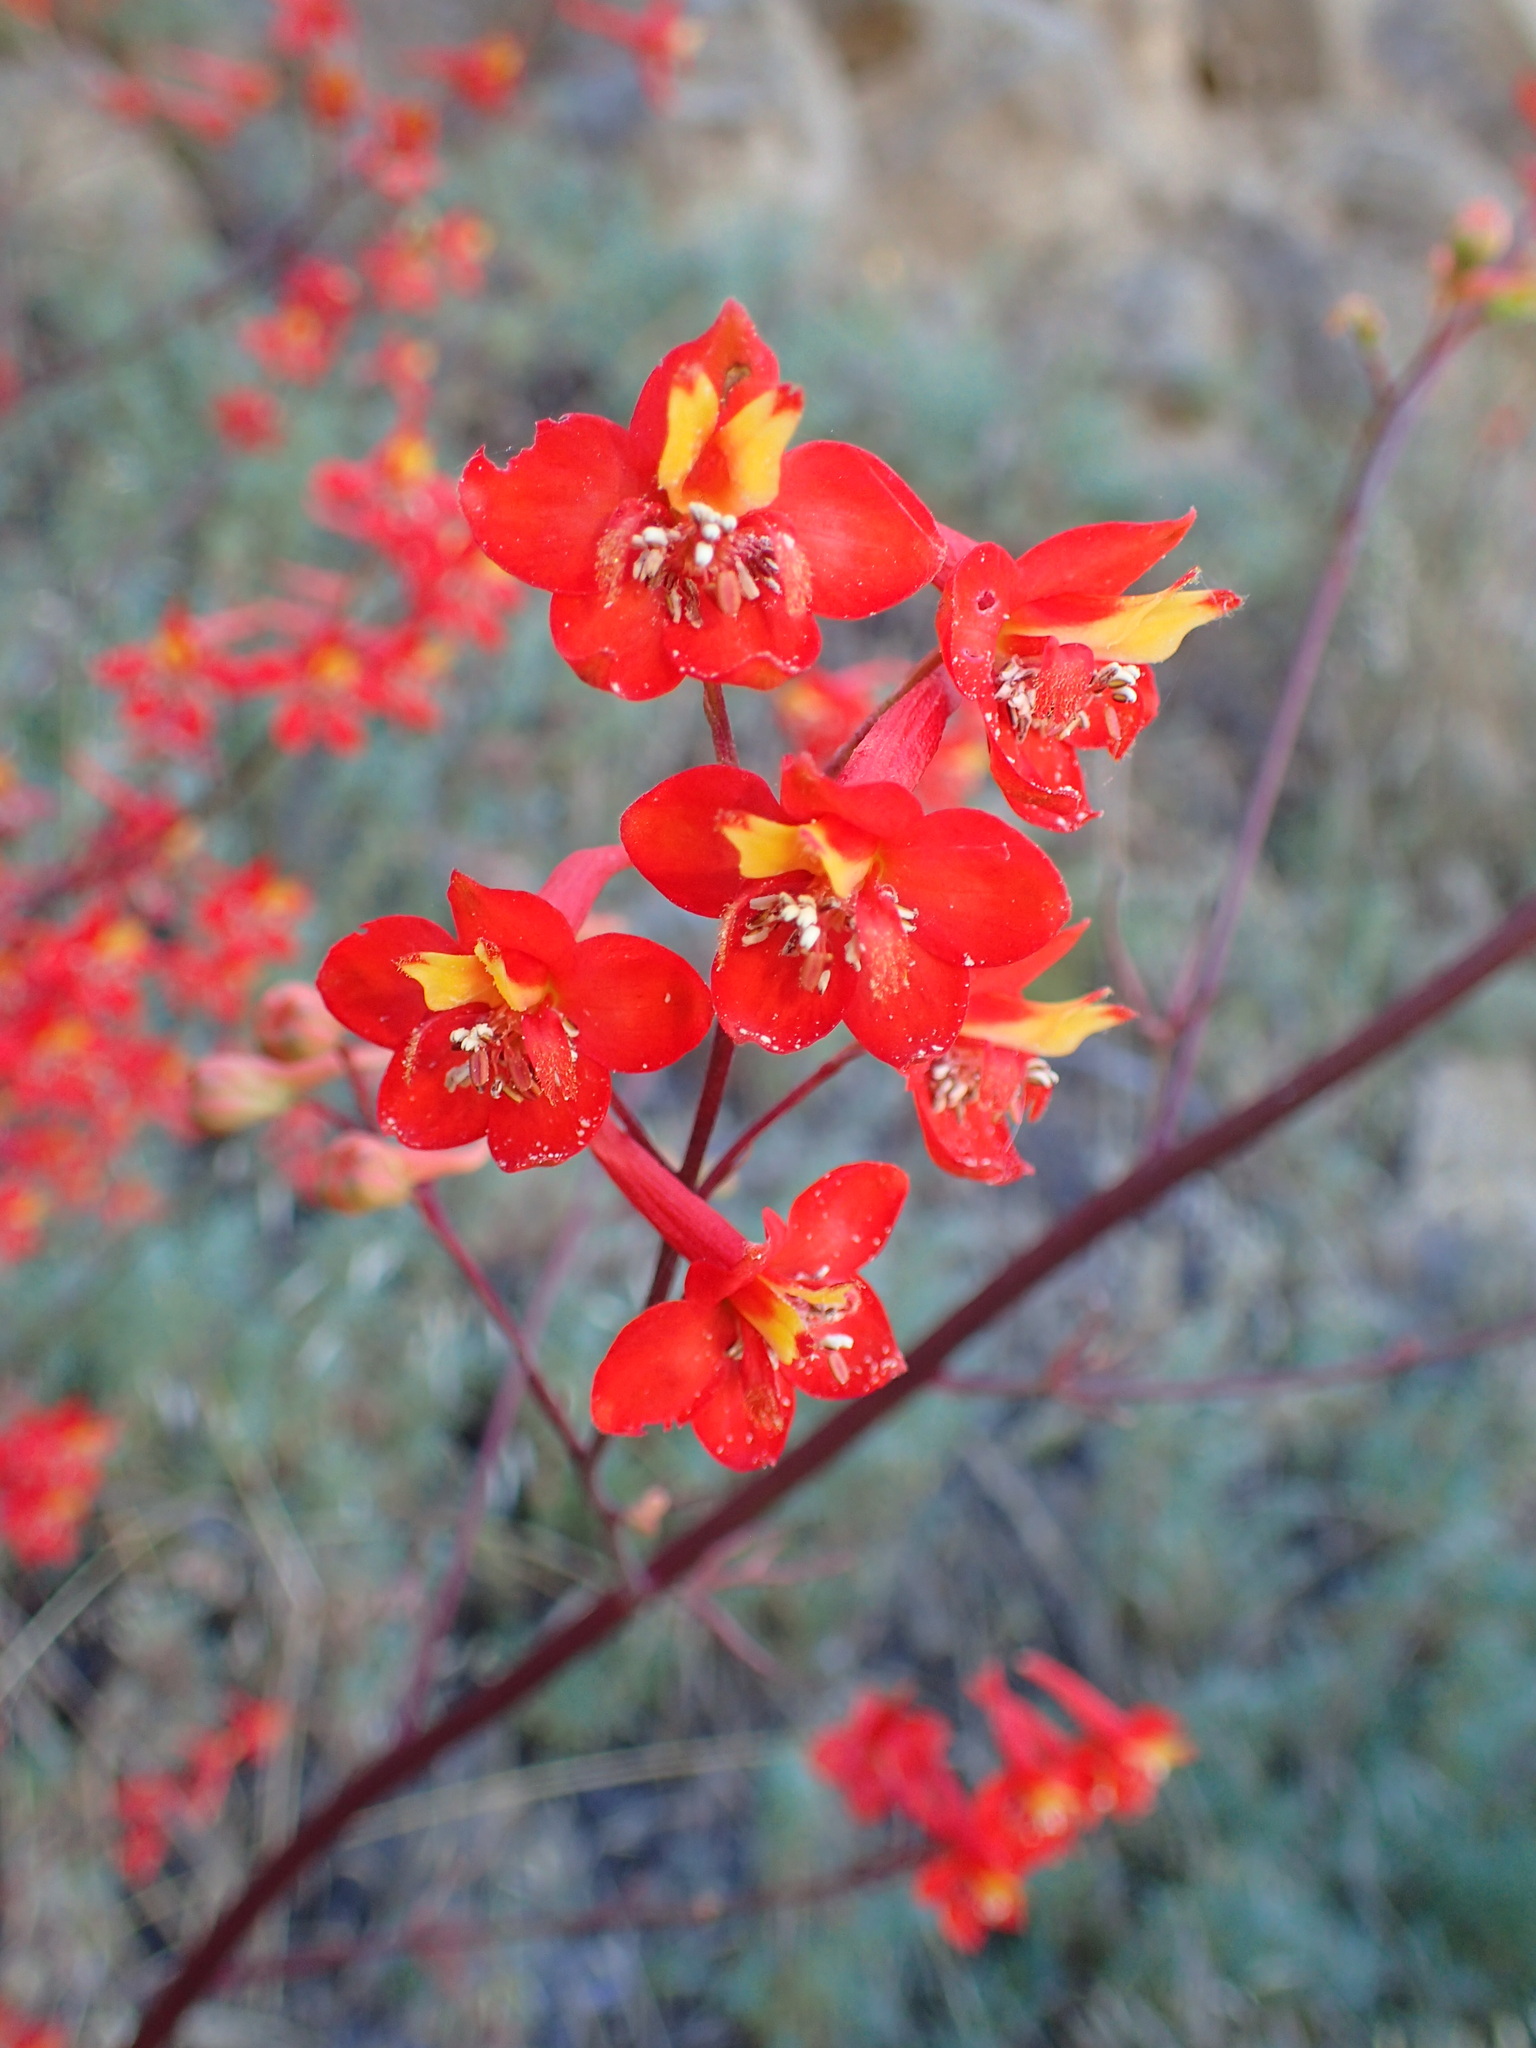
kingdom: Plantae
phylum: Tracheophyta
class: Magnoliopsida
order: Ranunculales
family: Ranunculaceae
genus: Delphinium
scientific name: Delphinium cardinale
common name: Scarlet larkspur
